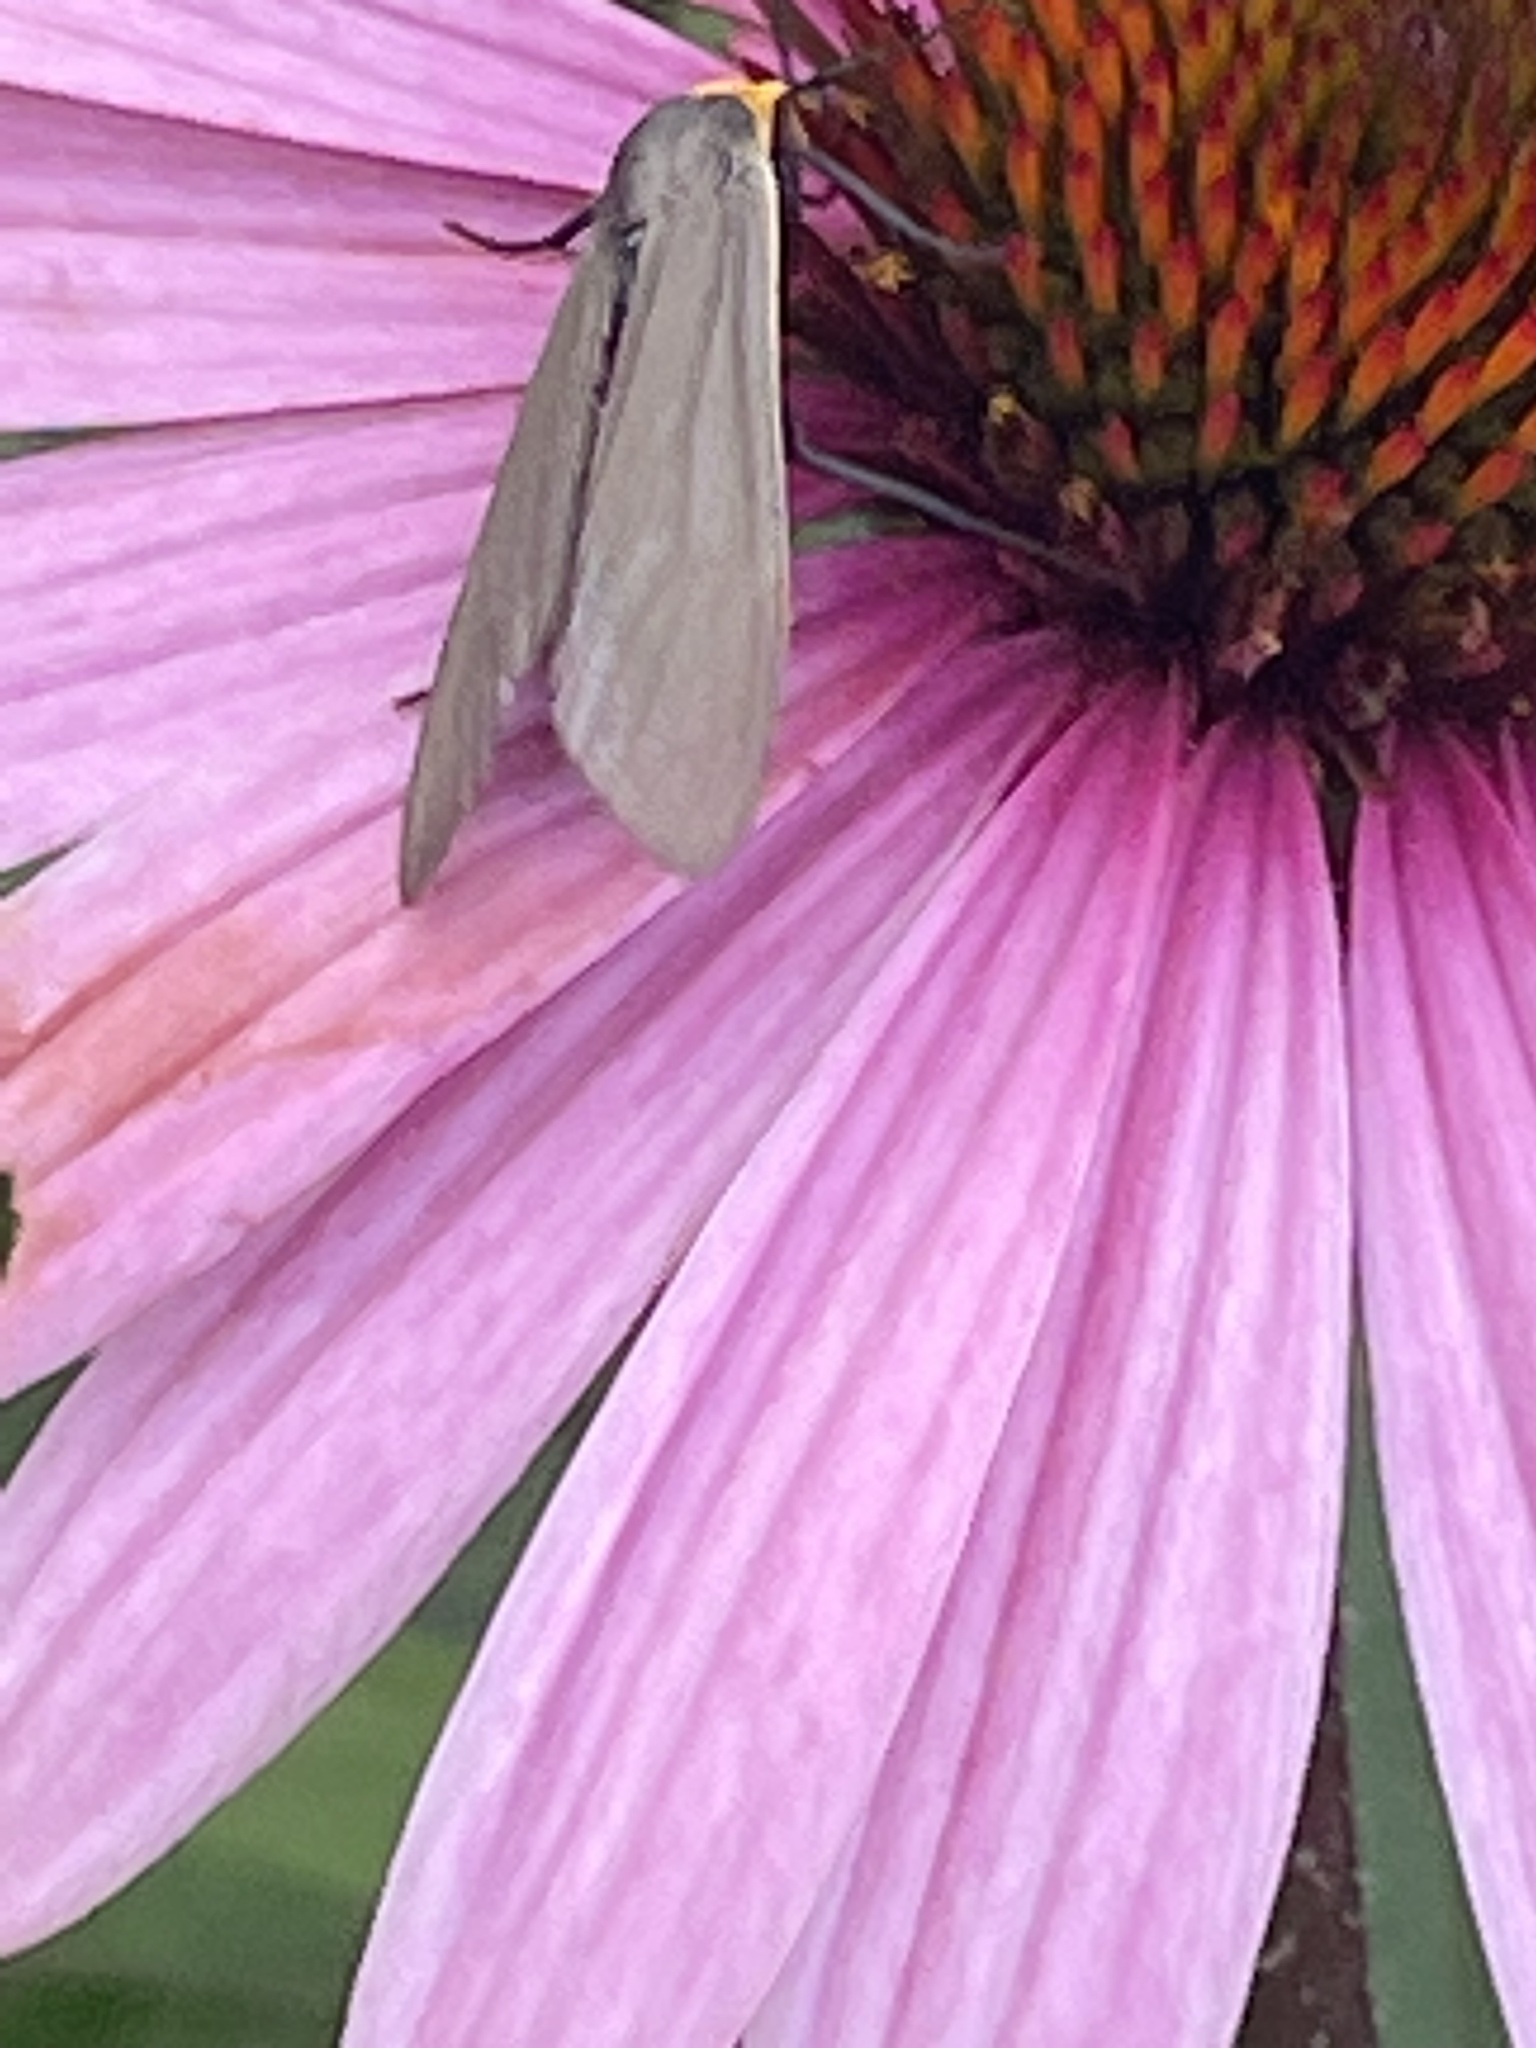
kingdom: Animalia
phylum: Arthropoda
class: Insecta
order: Lepidoptera
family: Erebidae
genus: Cisseps
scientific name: Cisseps fulvicollis
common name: Yellow-collared scape moth
